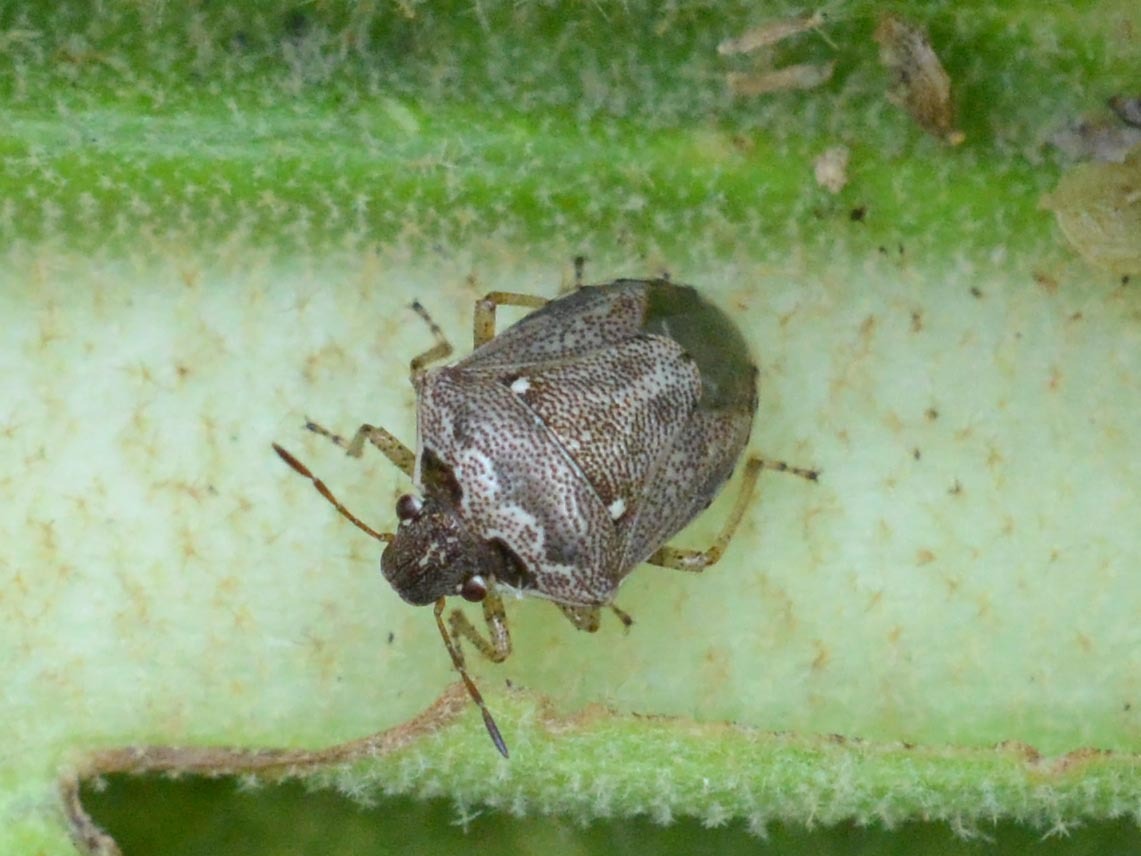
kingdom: Animalia
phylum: Arthropoda
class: Insecta
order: Hemiptera
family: Pentatomidae
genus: Eysarcoris
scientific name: Eysarcoris ventralis
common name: White-spotted stink bug
